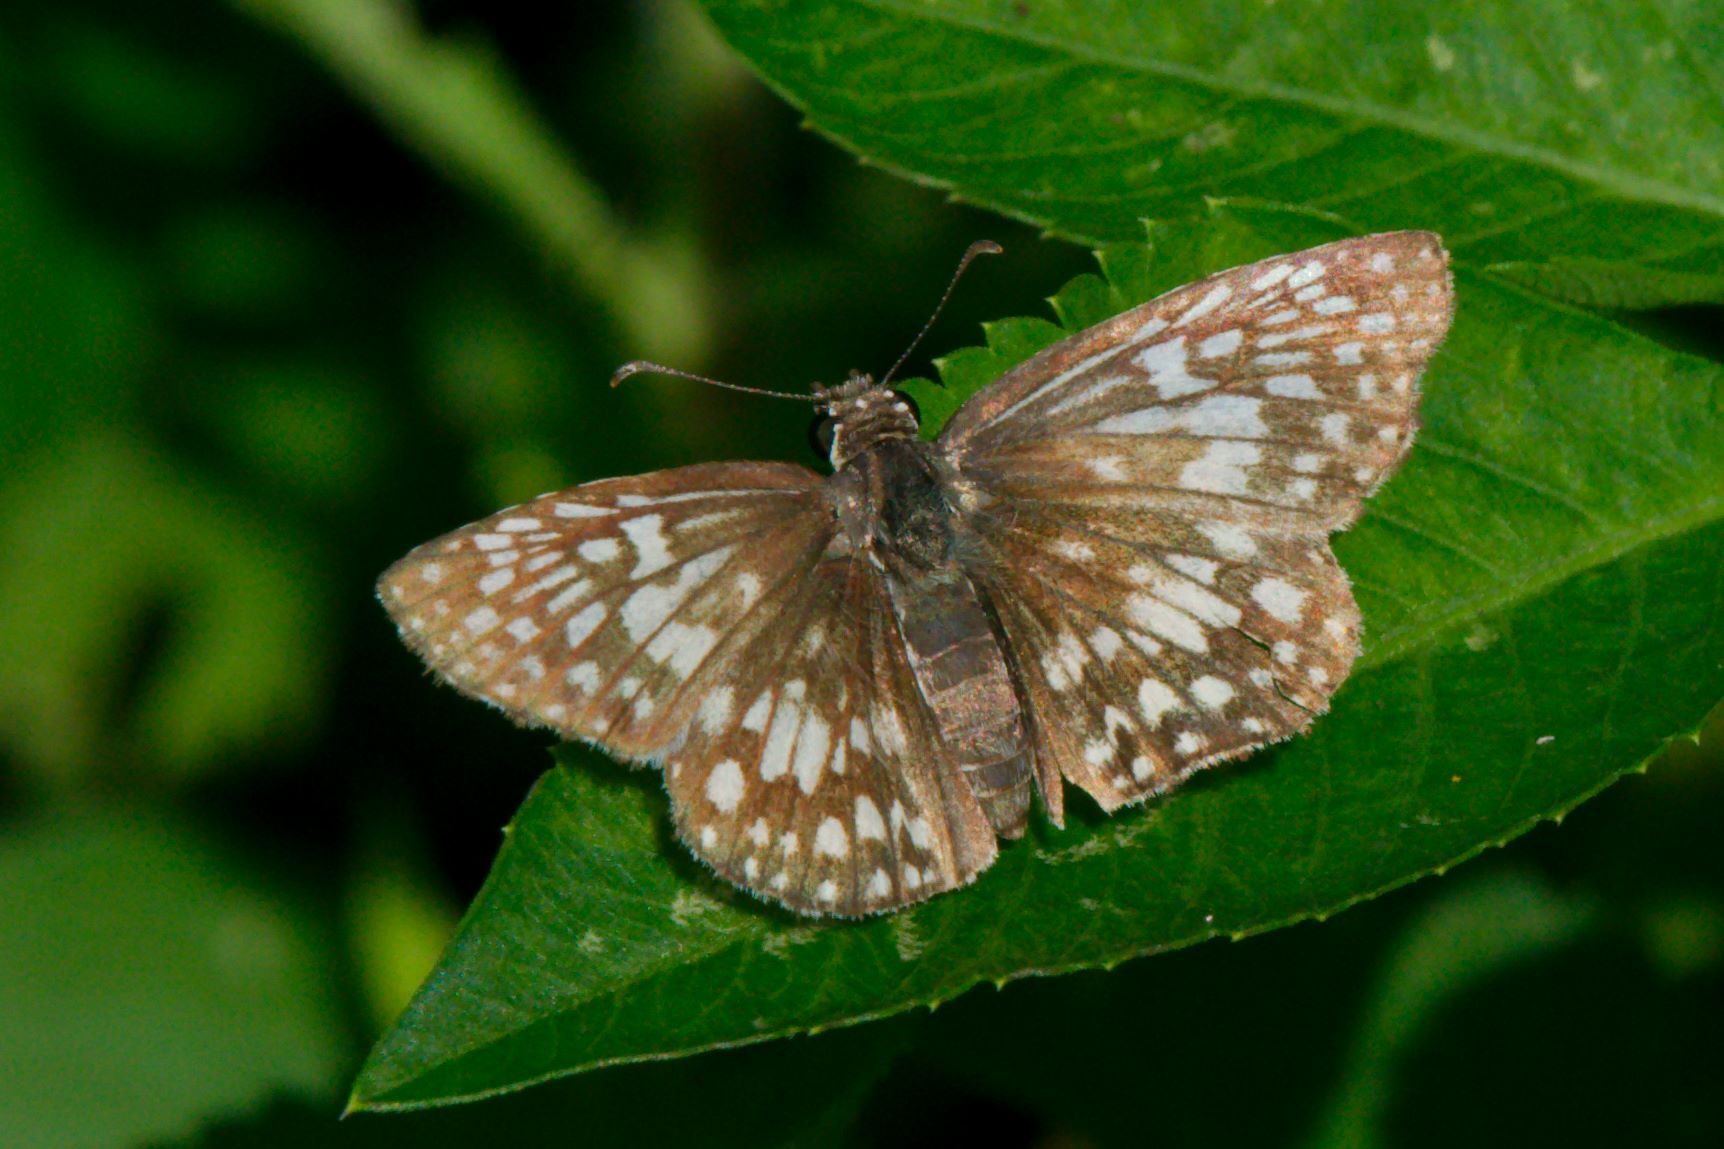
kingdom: Animalia
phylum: Arthropoda
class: Insecta
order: Lepidoptera
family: Hesperiidae
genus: Pyrgus
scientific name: Pyrgus oileus
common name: Tropical checkered-skipper
